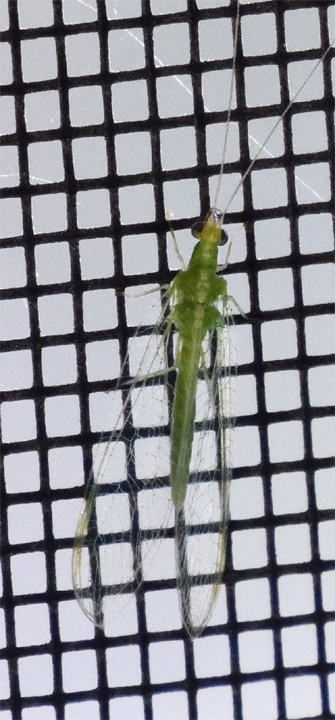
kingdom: Animalia
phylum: Arthropoda
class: Insecta
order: Neuroptera
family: Chrysopidae
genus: Chrysoperla
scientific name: Chrysoperla comanche
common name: Green lacewing
